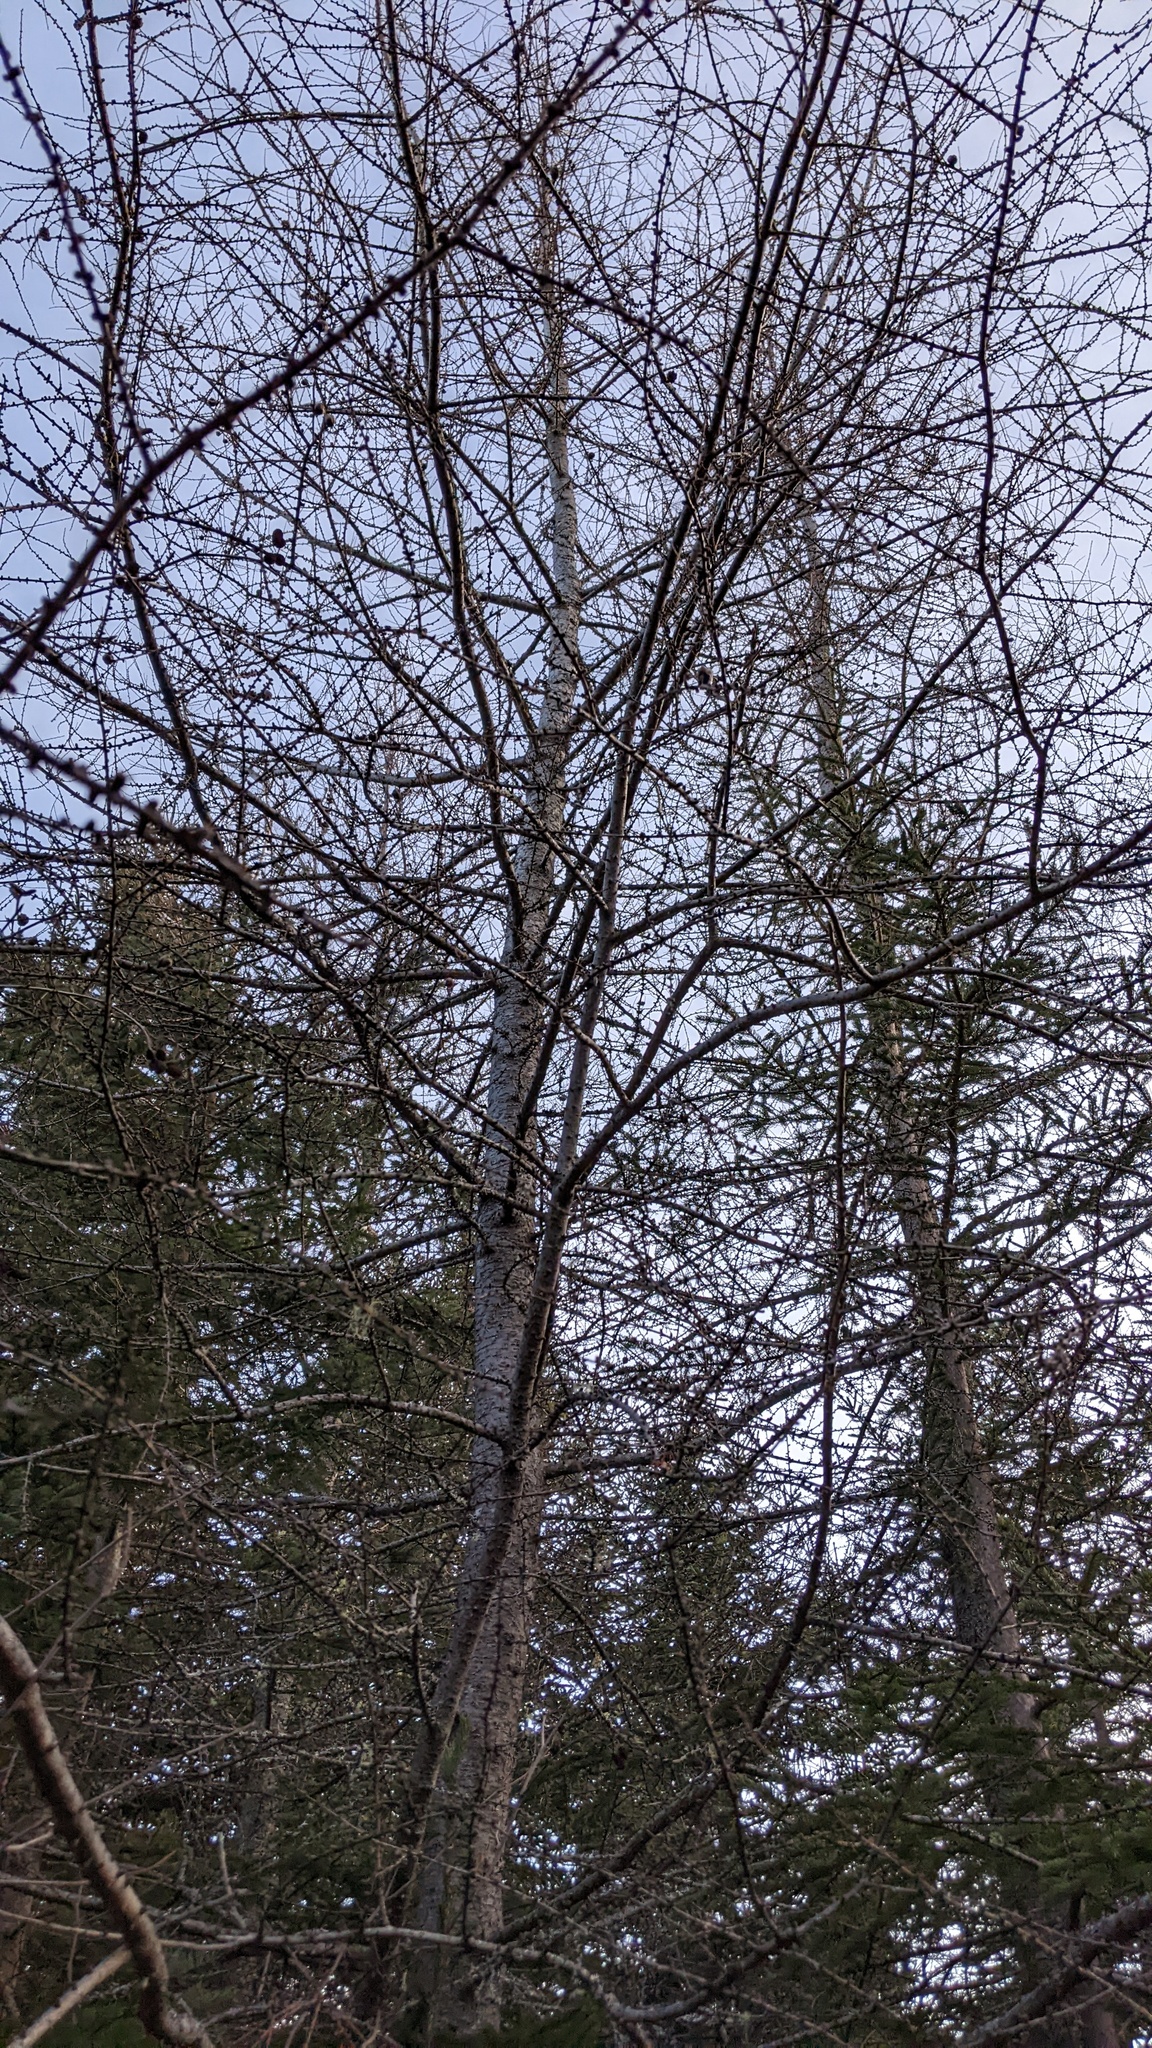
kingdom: Plantae
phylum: Tracheophyta
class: Pinopsida
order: Pinales
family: Pinaceae
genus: Larix
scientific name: Larix laricina
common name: American larch
